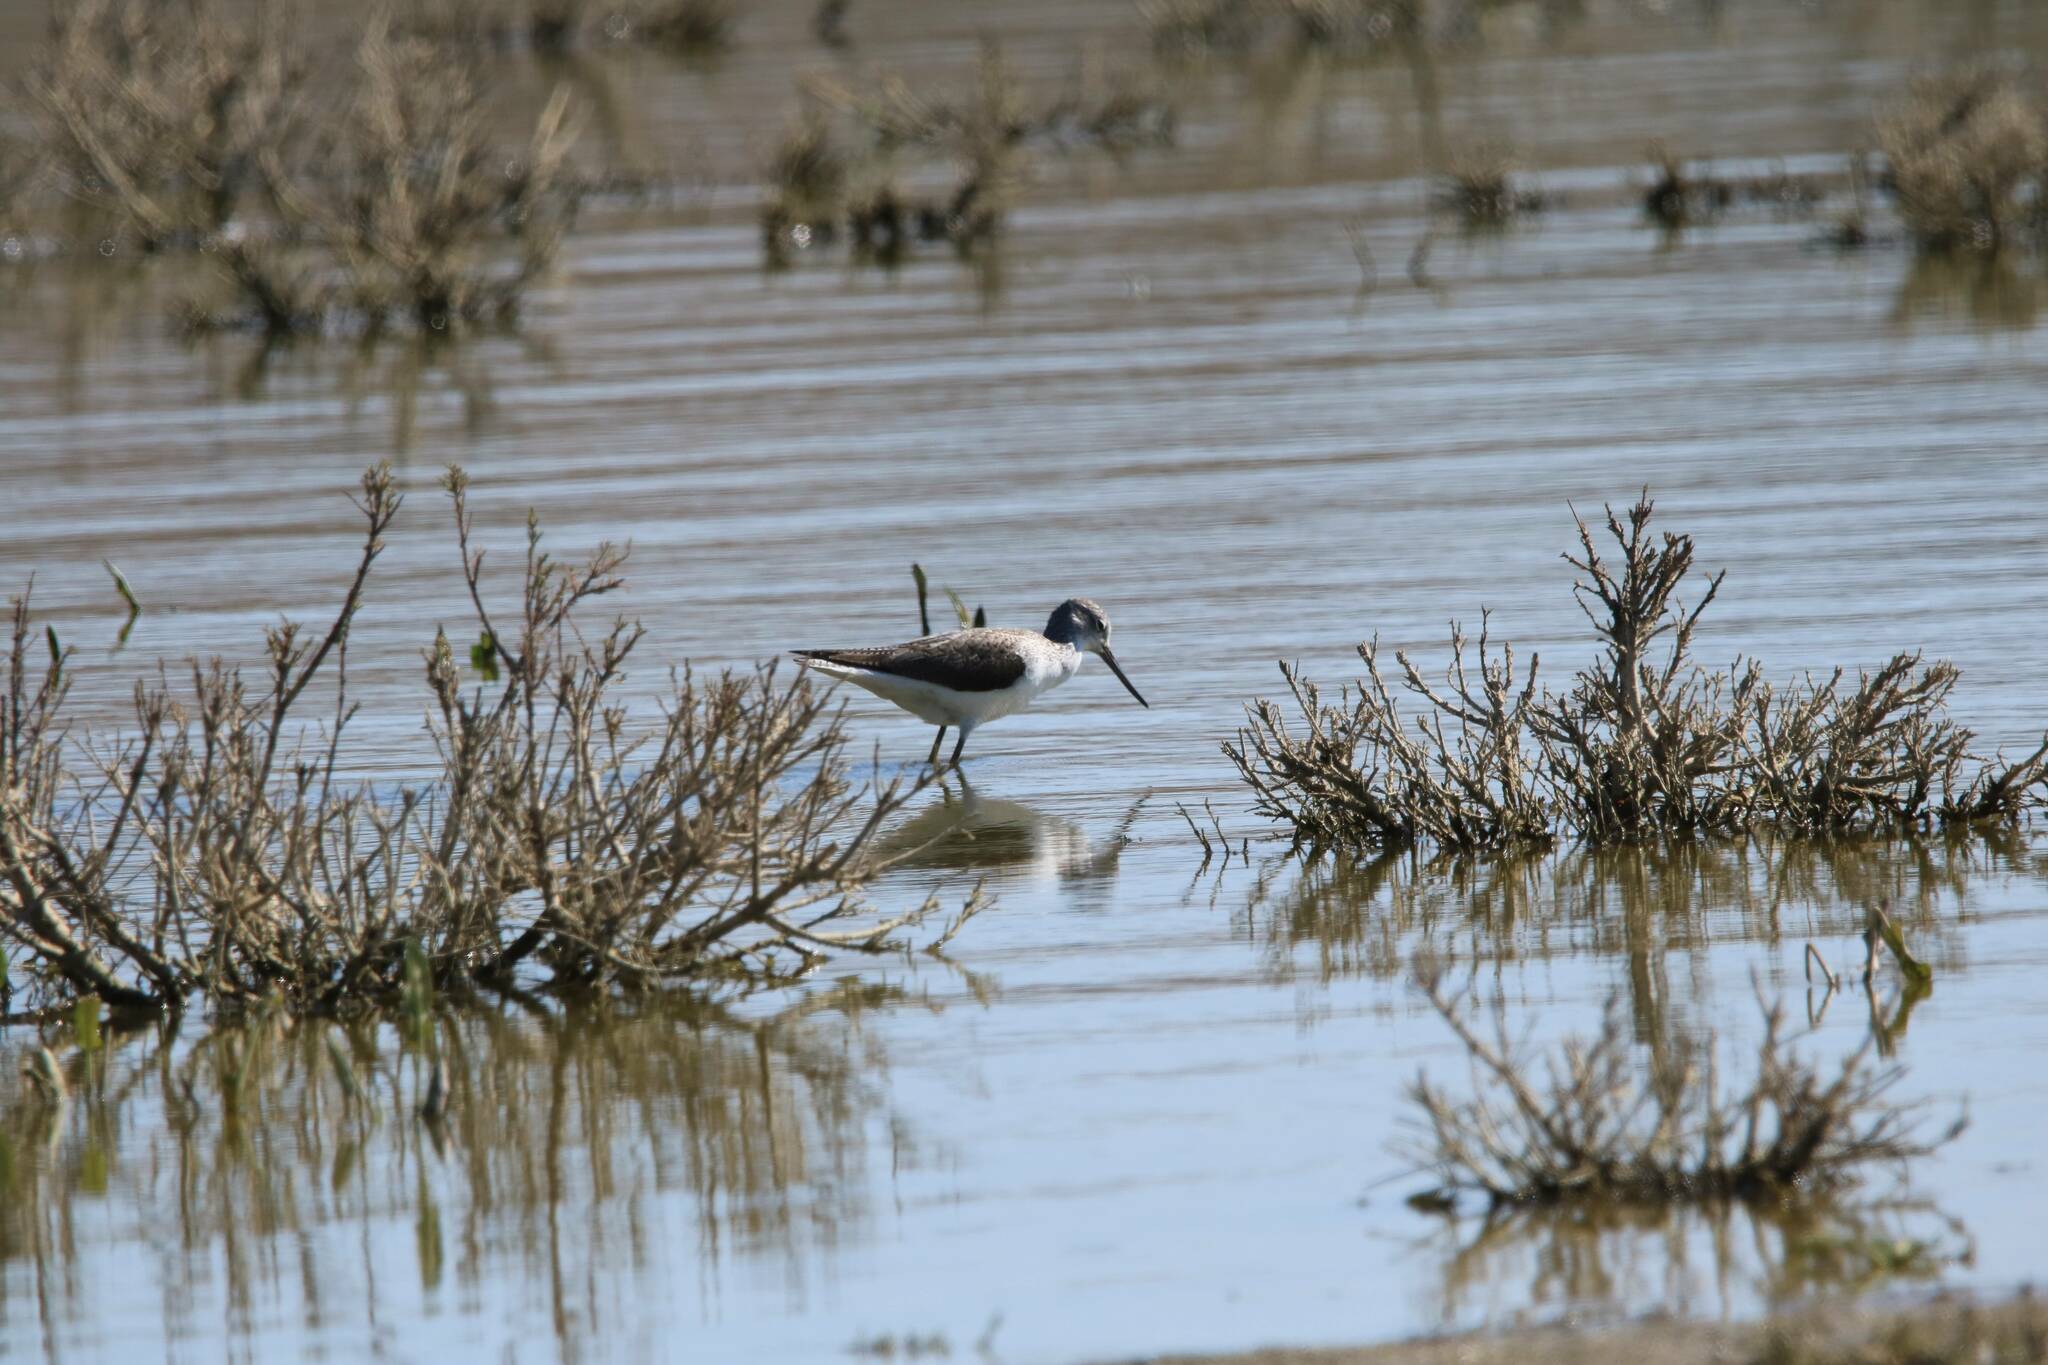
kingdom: Animalia
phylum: Chordata
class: Aves
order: Charadriiformes
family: Scolopacidae
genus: Tringa
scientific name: Tringa nebularia
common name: Common greenshank
